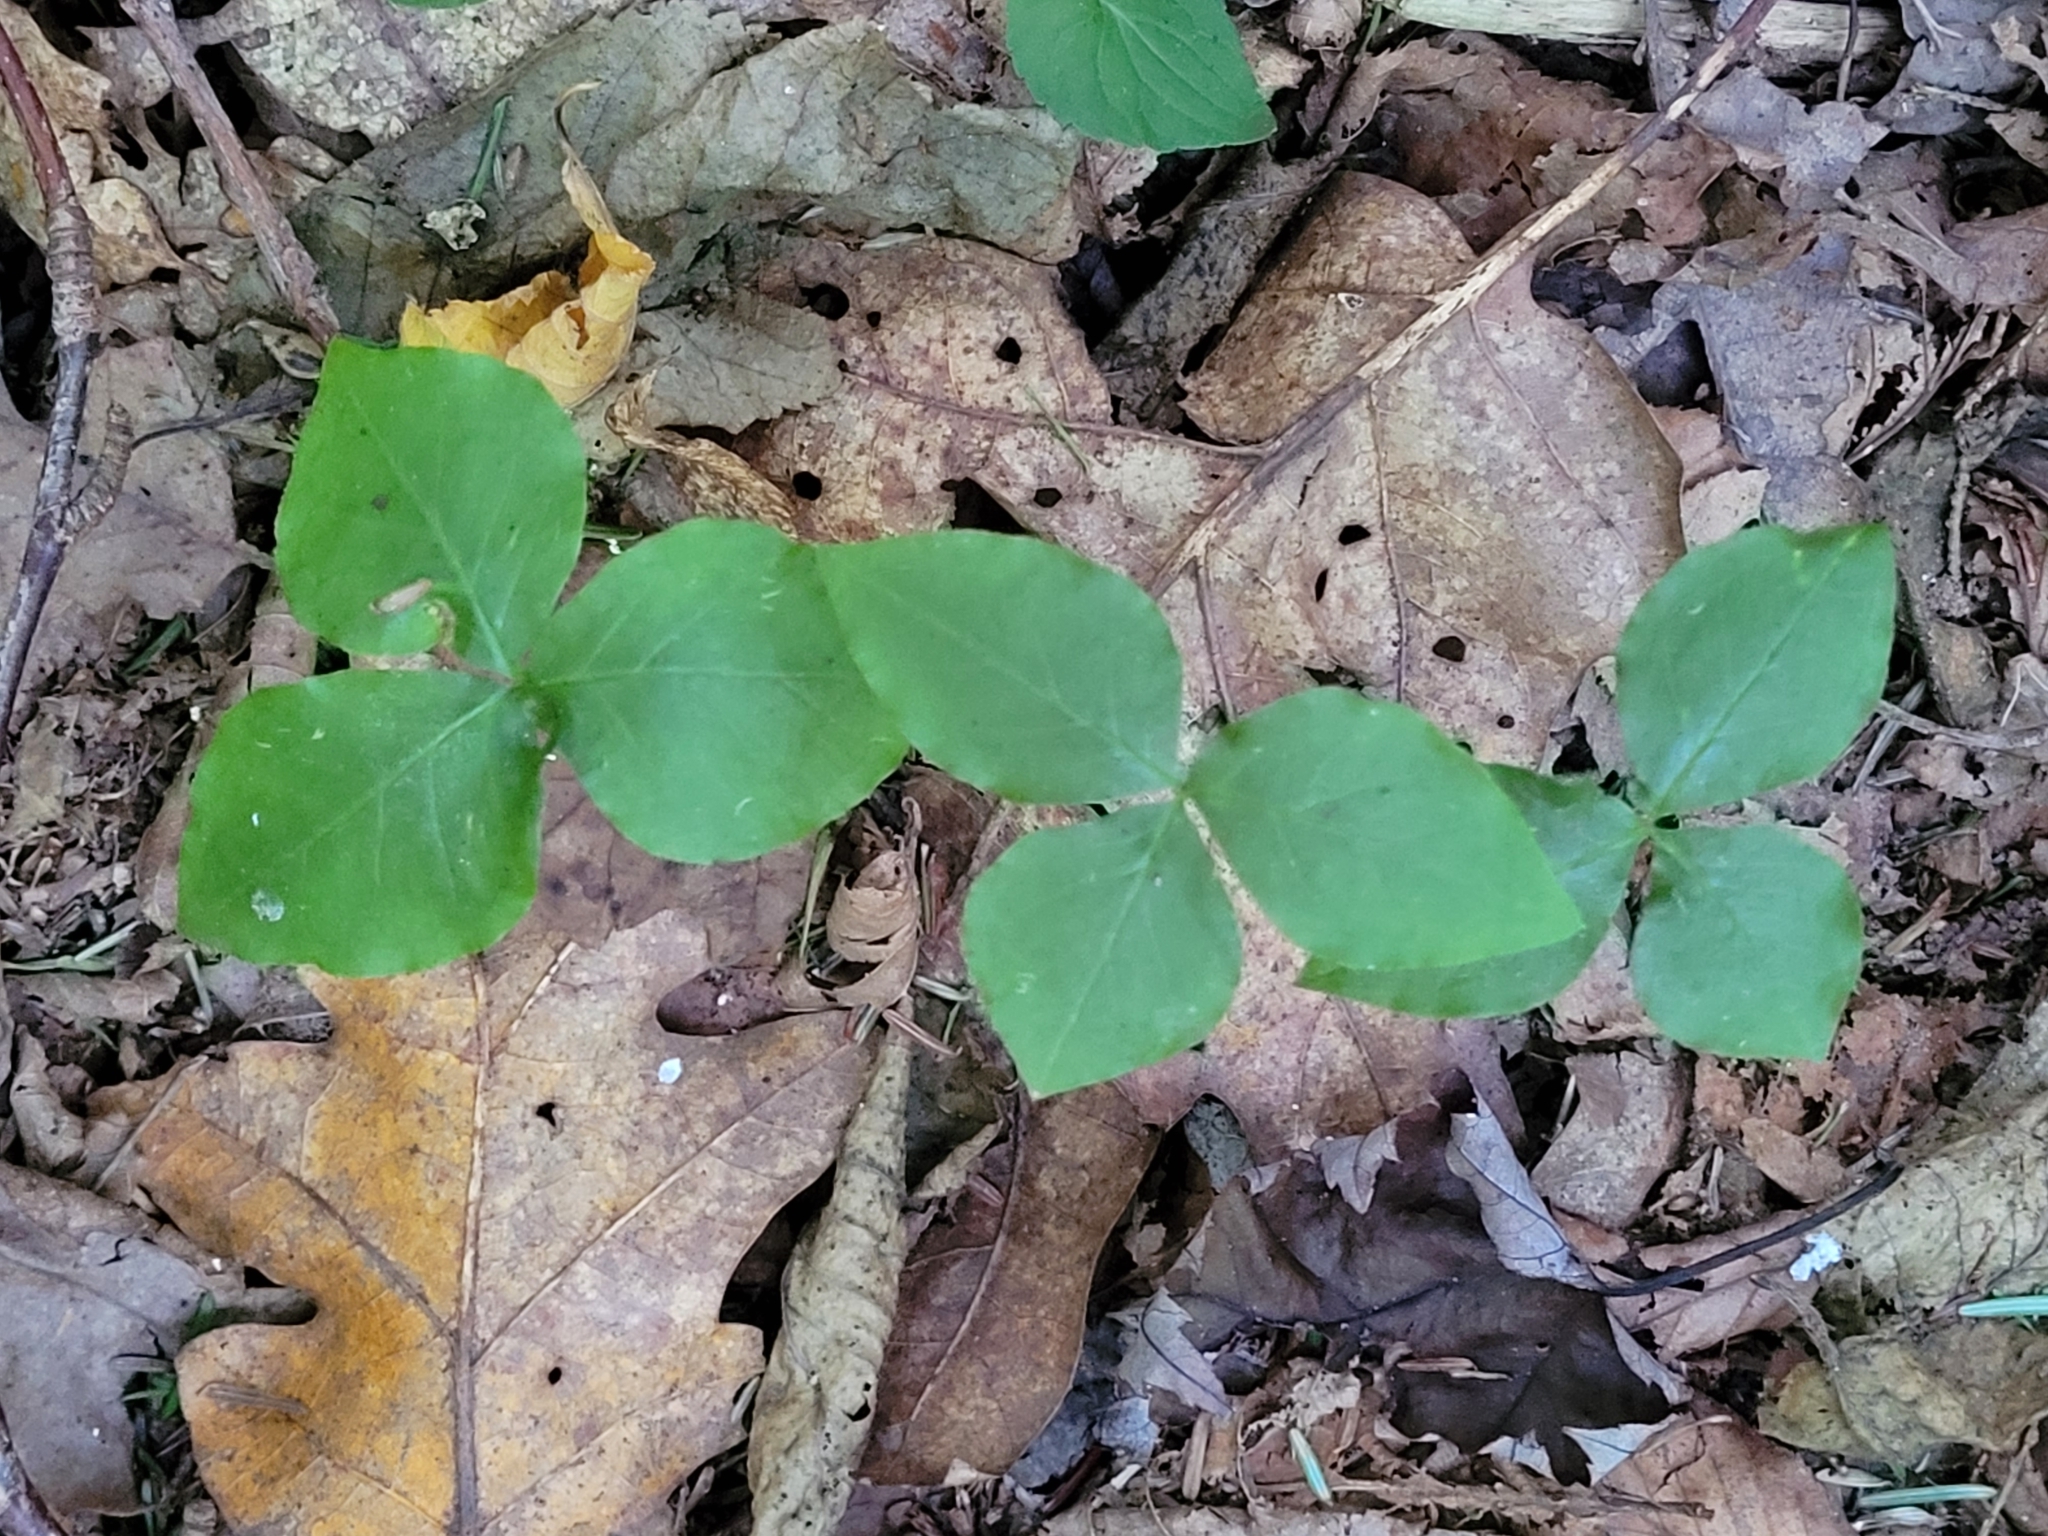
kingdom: Plantae
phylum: Tracheophyta
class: Liliopsida
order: Alismatales
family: Araceae
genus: Arisaema
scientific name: Arisaema triphyllum
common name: Jack-in-the-pulpit
